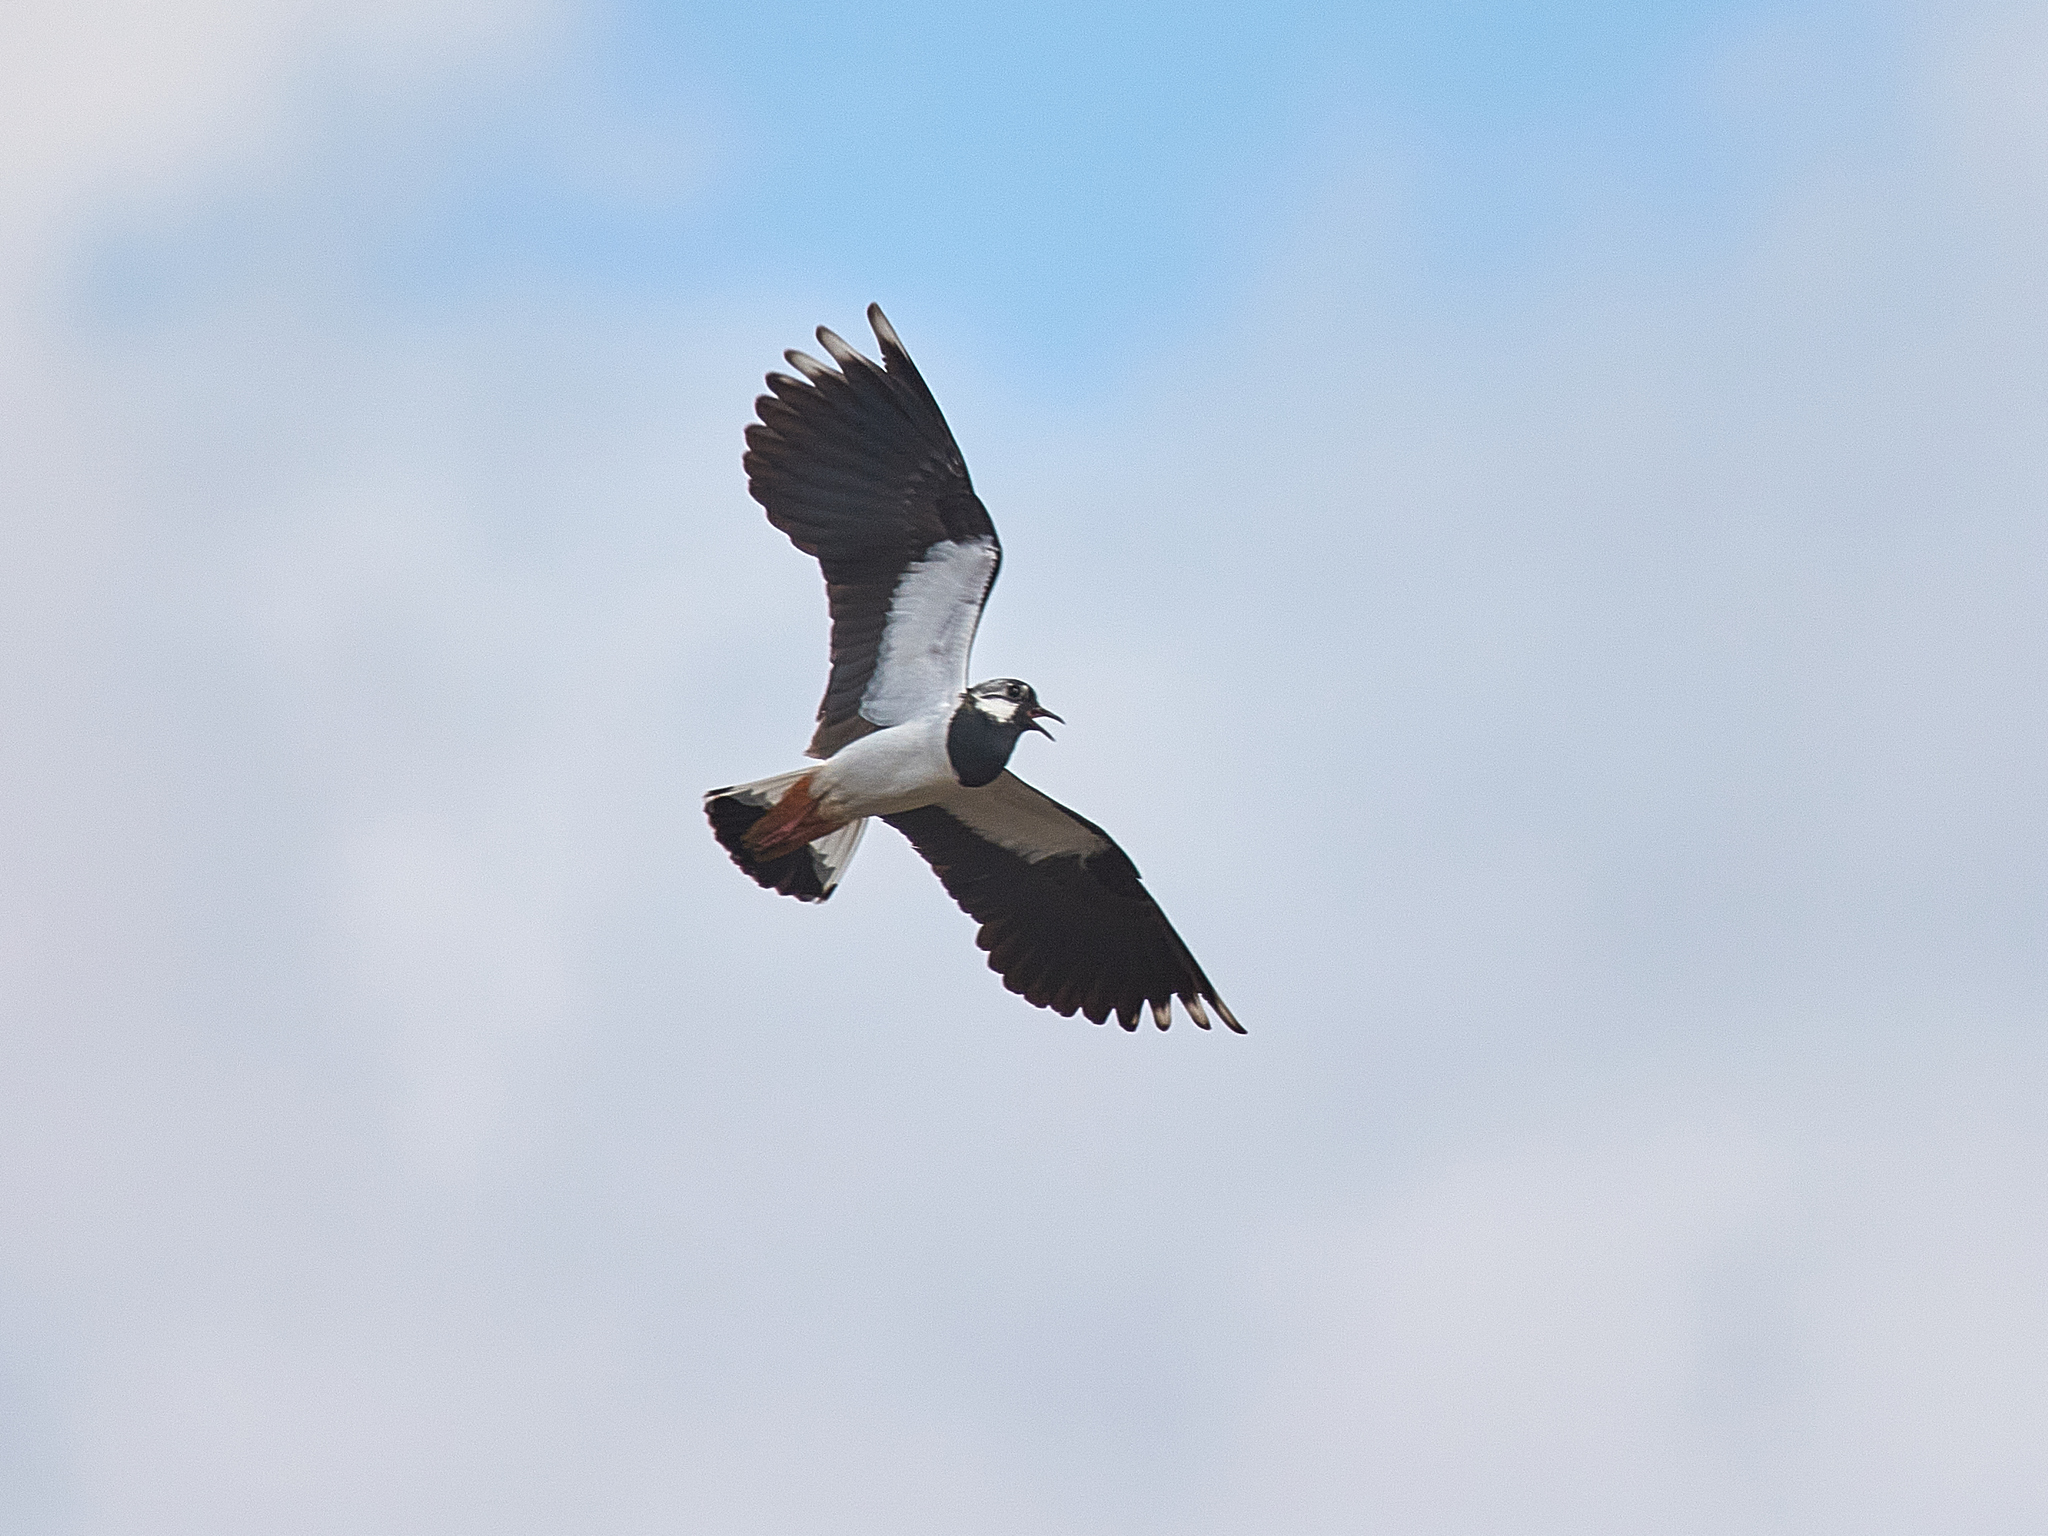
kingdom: Animalia
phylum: Chordata
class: Aves
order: Charadriiformes
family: Charadriidae
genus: Vanellus
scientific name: Vanellus vanellus
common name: Northern lapwing
